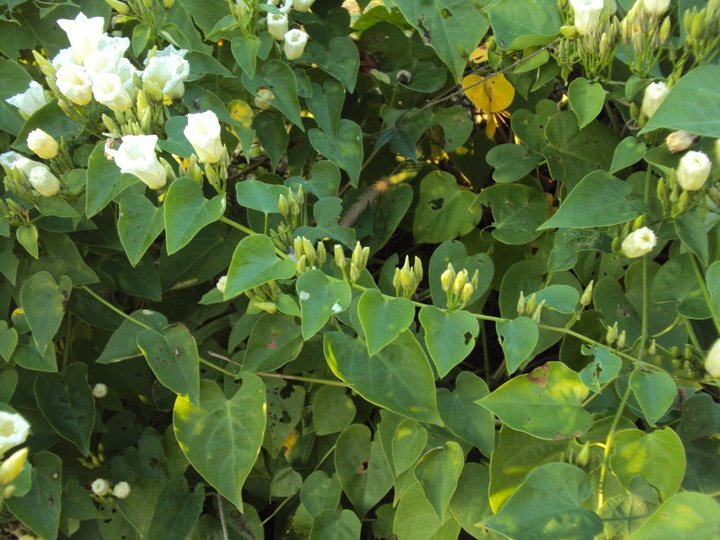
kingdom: Plantae
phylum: Tracheophyta
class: Magnoliopsida
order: Solanales
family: Convolvulaceae
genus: Ipomoea
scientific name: Ipomoea corymbosa
